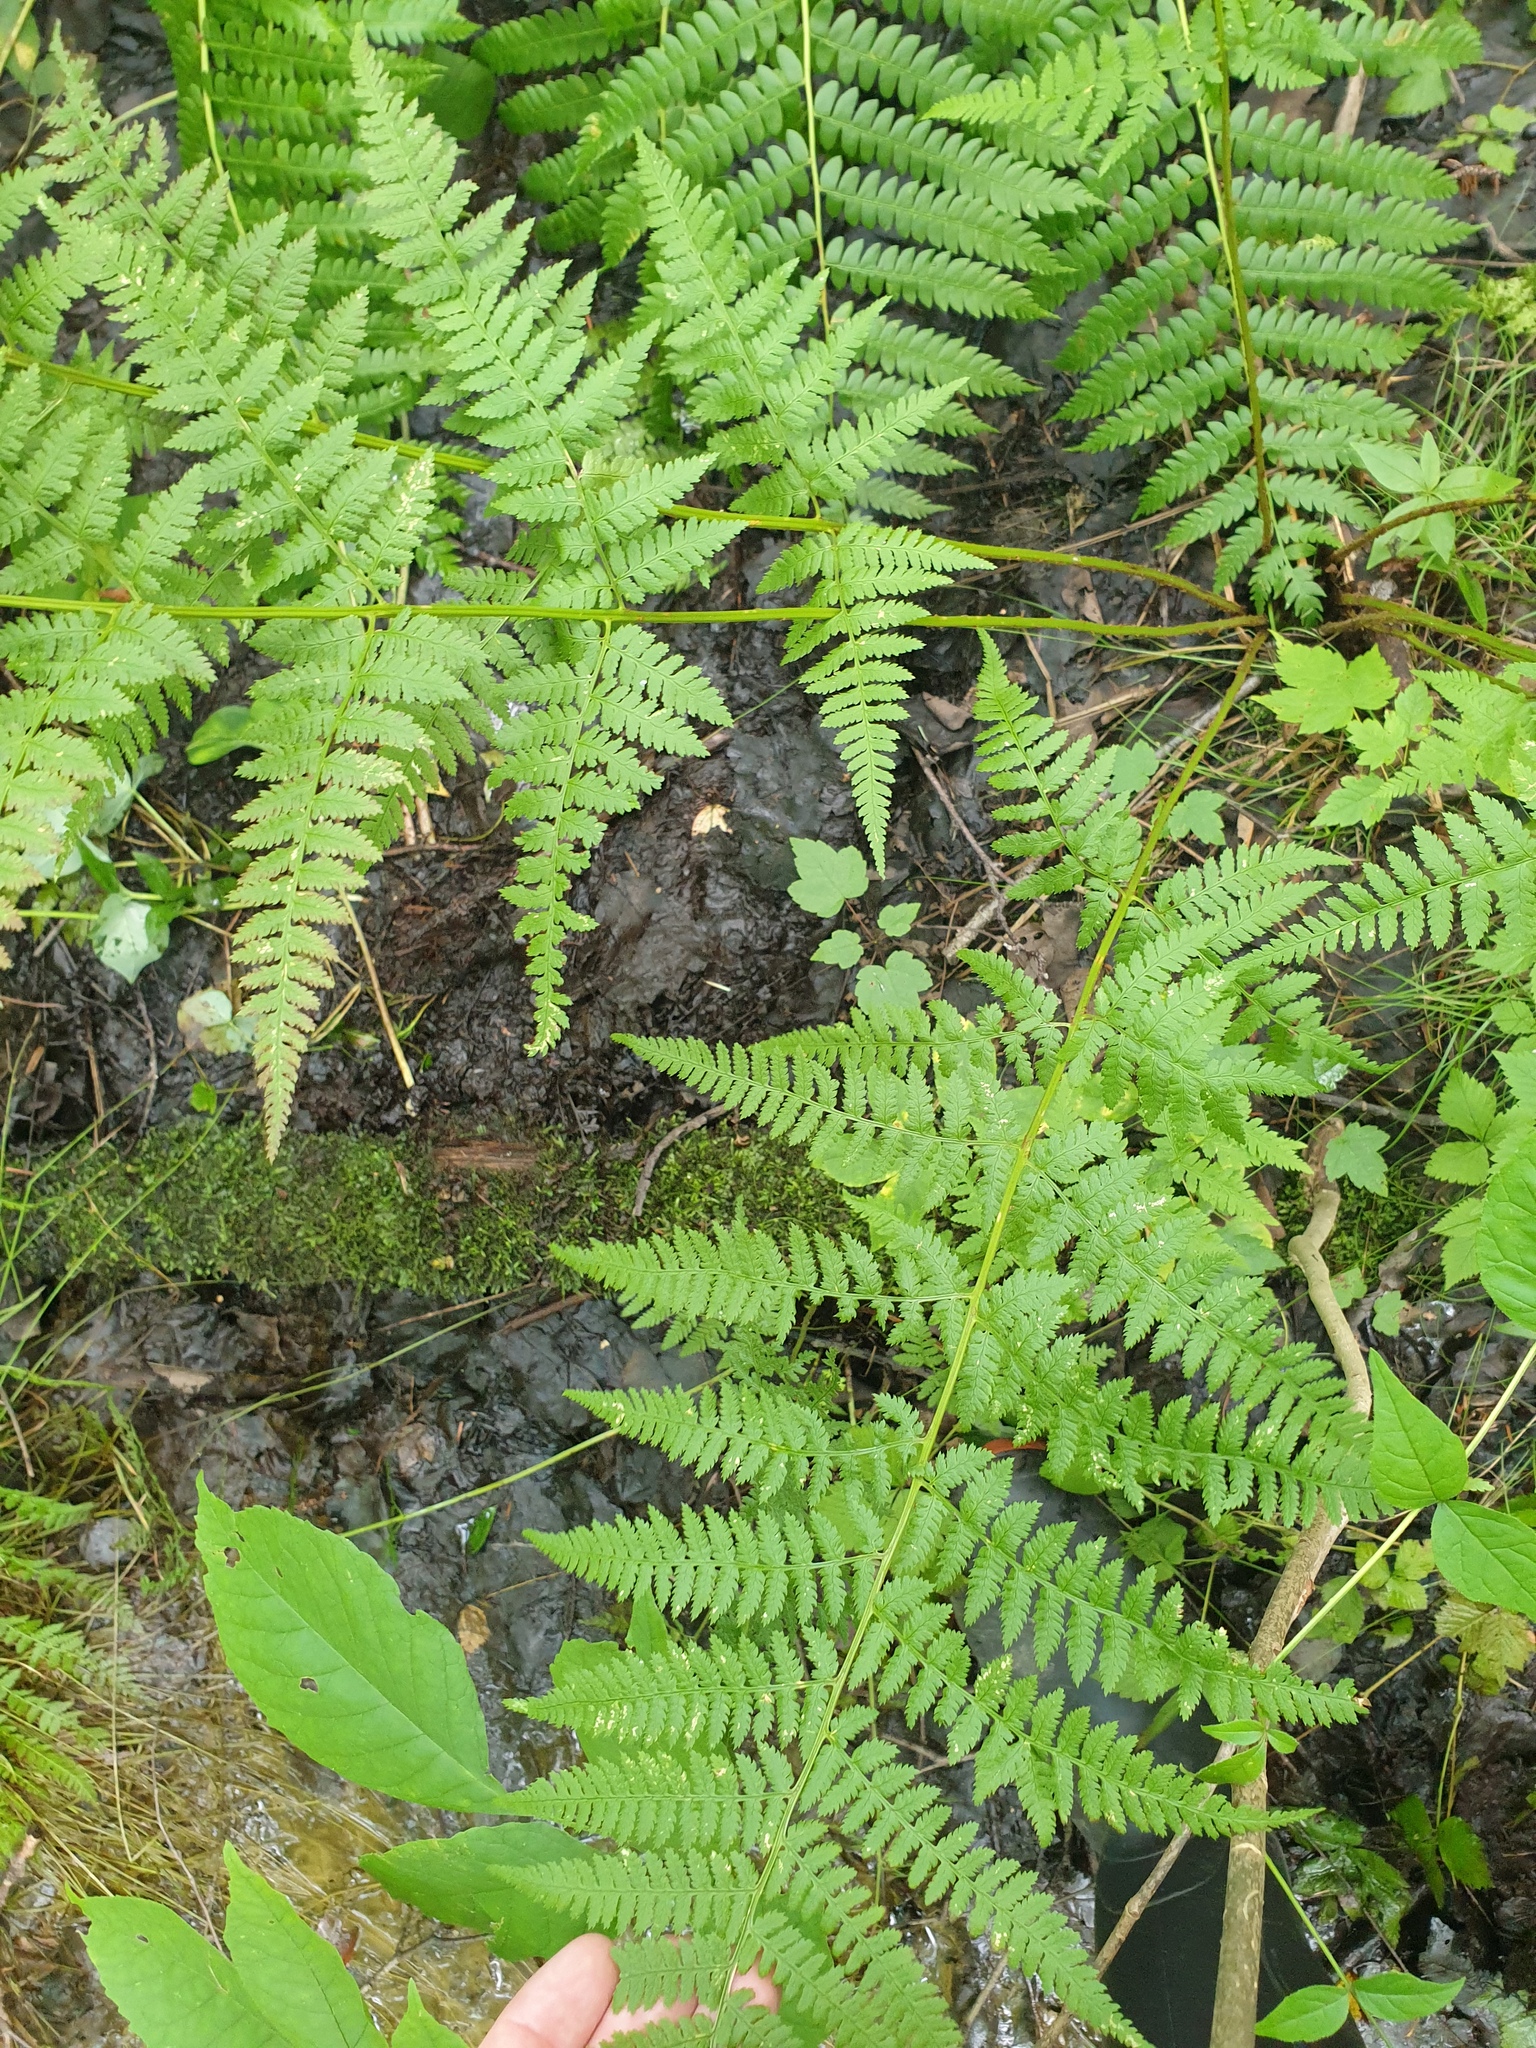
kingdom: Plantae
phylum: Tracheophyta
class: Polypodiopsida
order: Polypodiales
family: Dryopteridaceae
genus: Dryopteris
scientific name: Dryopteris carthusiana
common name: Narrow buckler-fern
